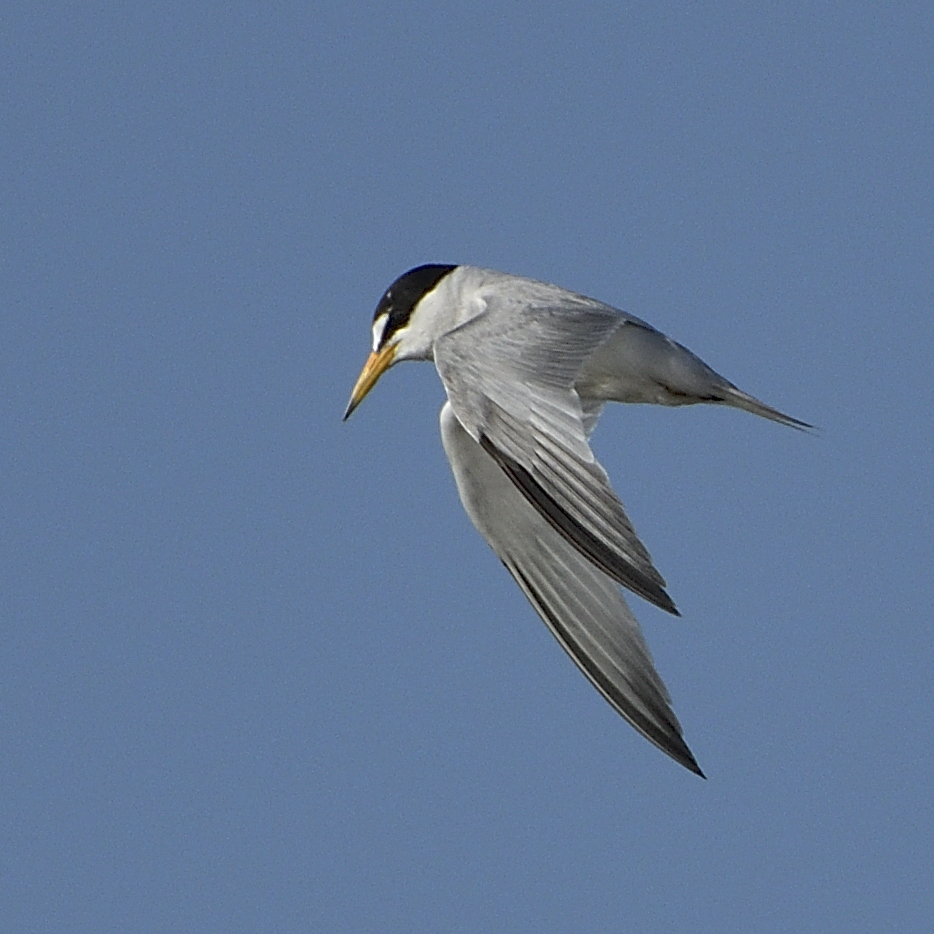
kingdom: Animalia
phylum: Chordata
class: Aves
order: Charadriiformes
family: Laridae
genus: Sternula
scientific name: Sternula antillarum
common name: Least tern
